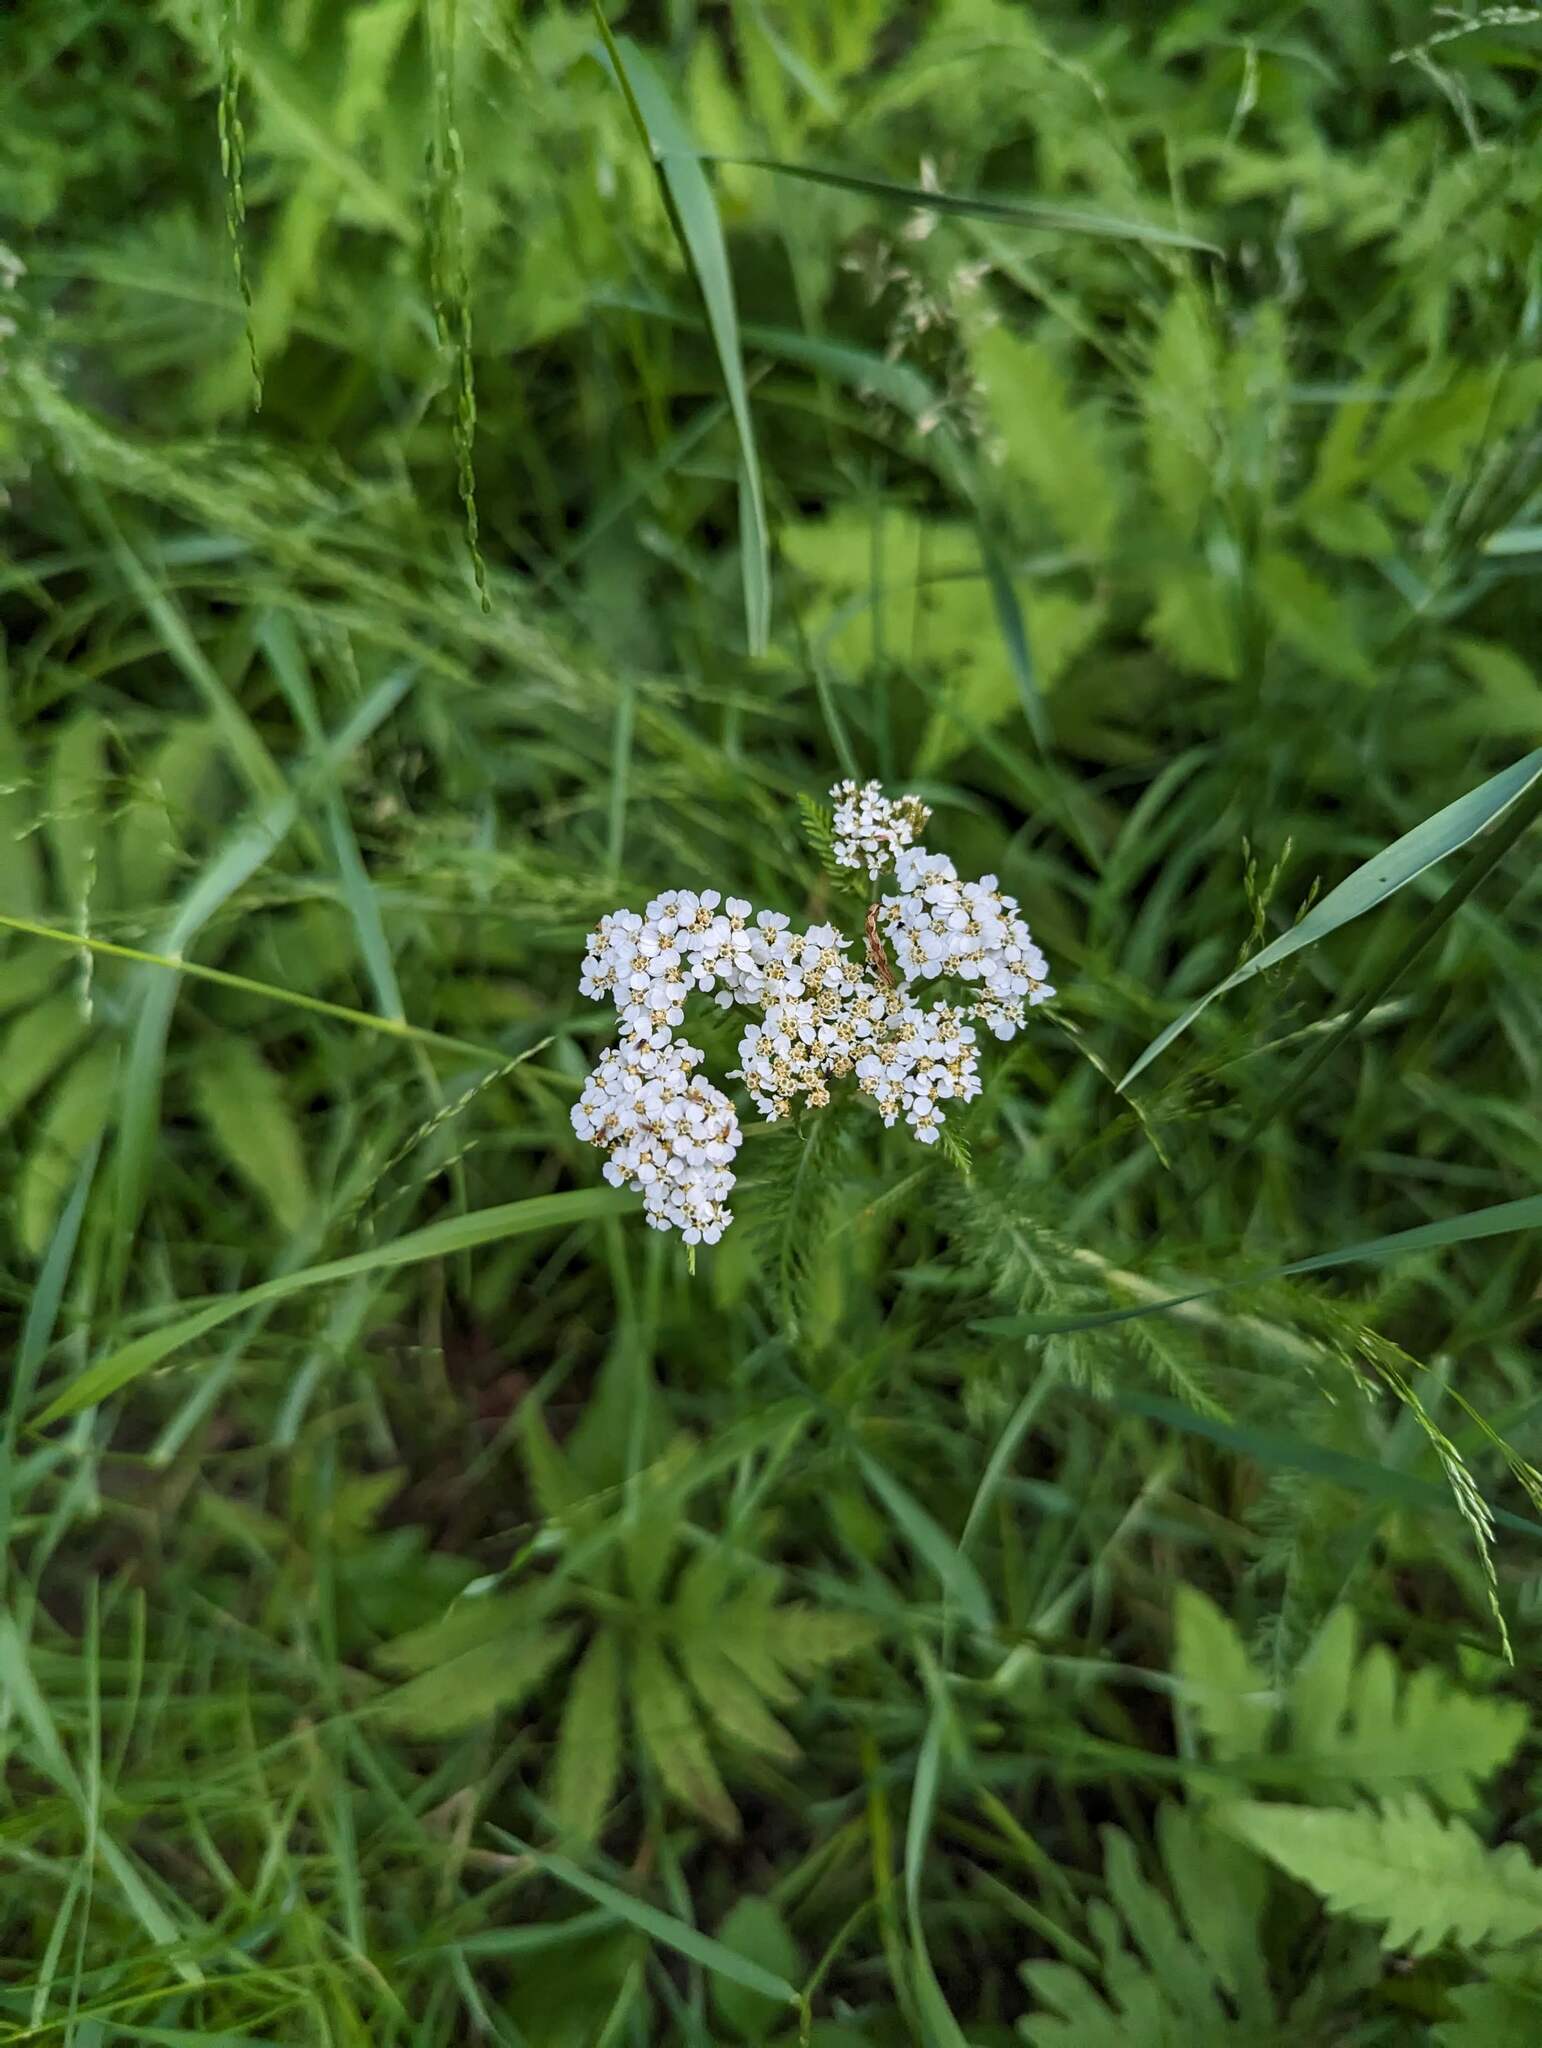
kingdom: Plantae
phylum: Tracheophyta
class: Magnoliopsida
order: Asterales
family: Asteraceae
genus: Achillea
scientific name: Achillea millefolium
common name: Yarrow
